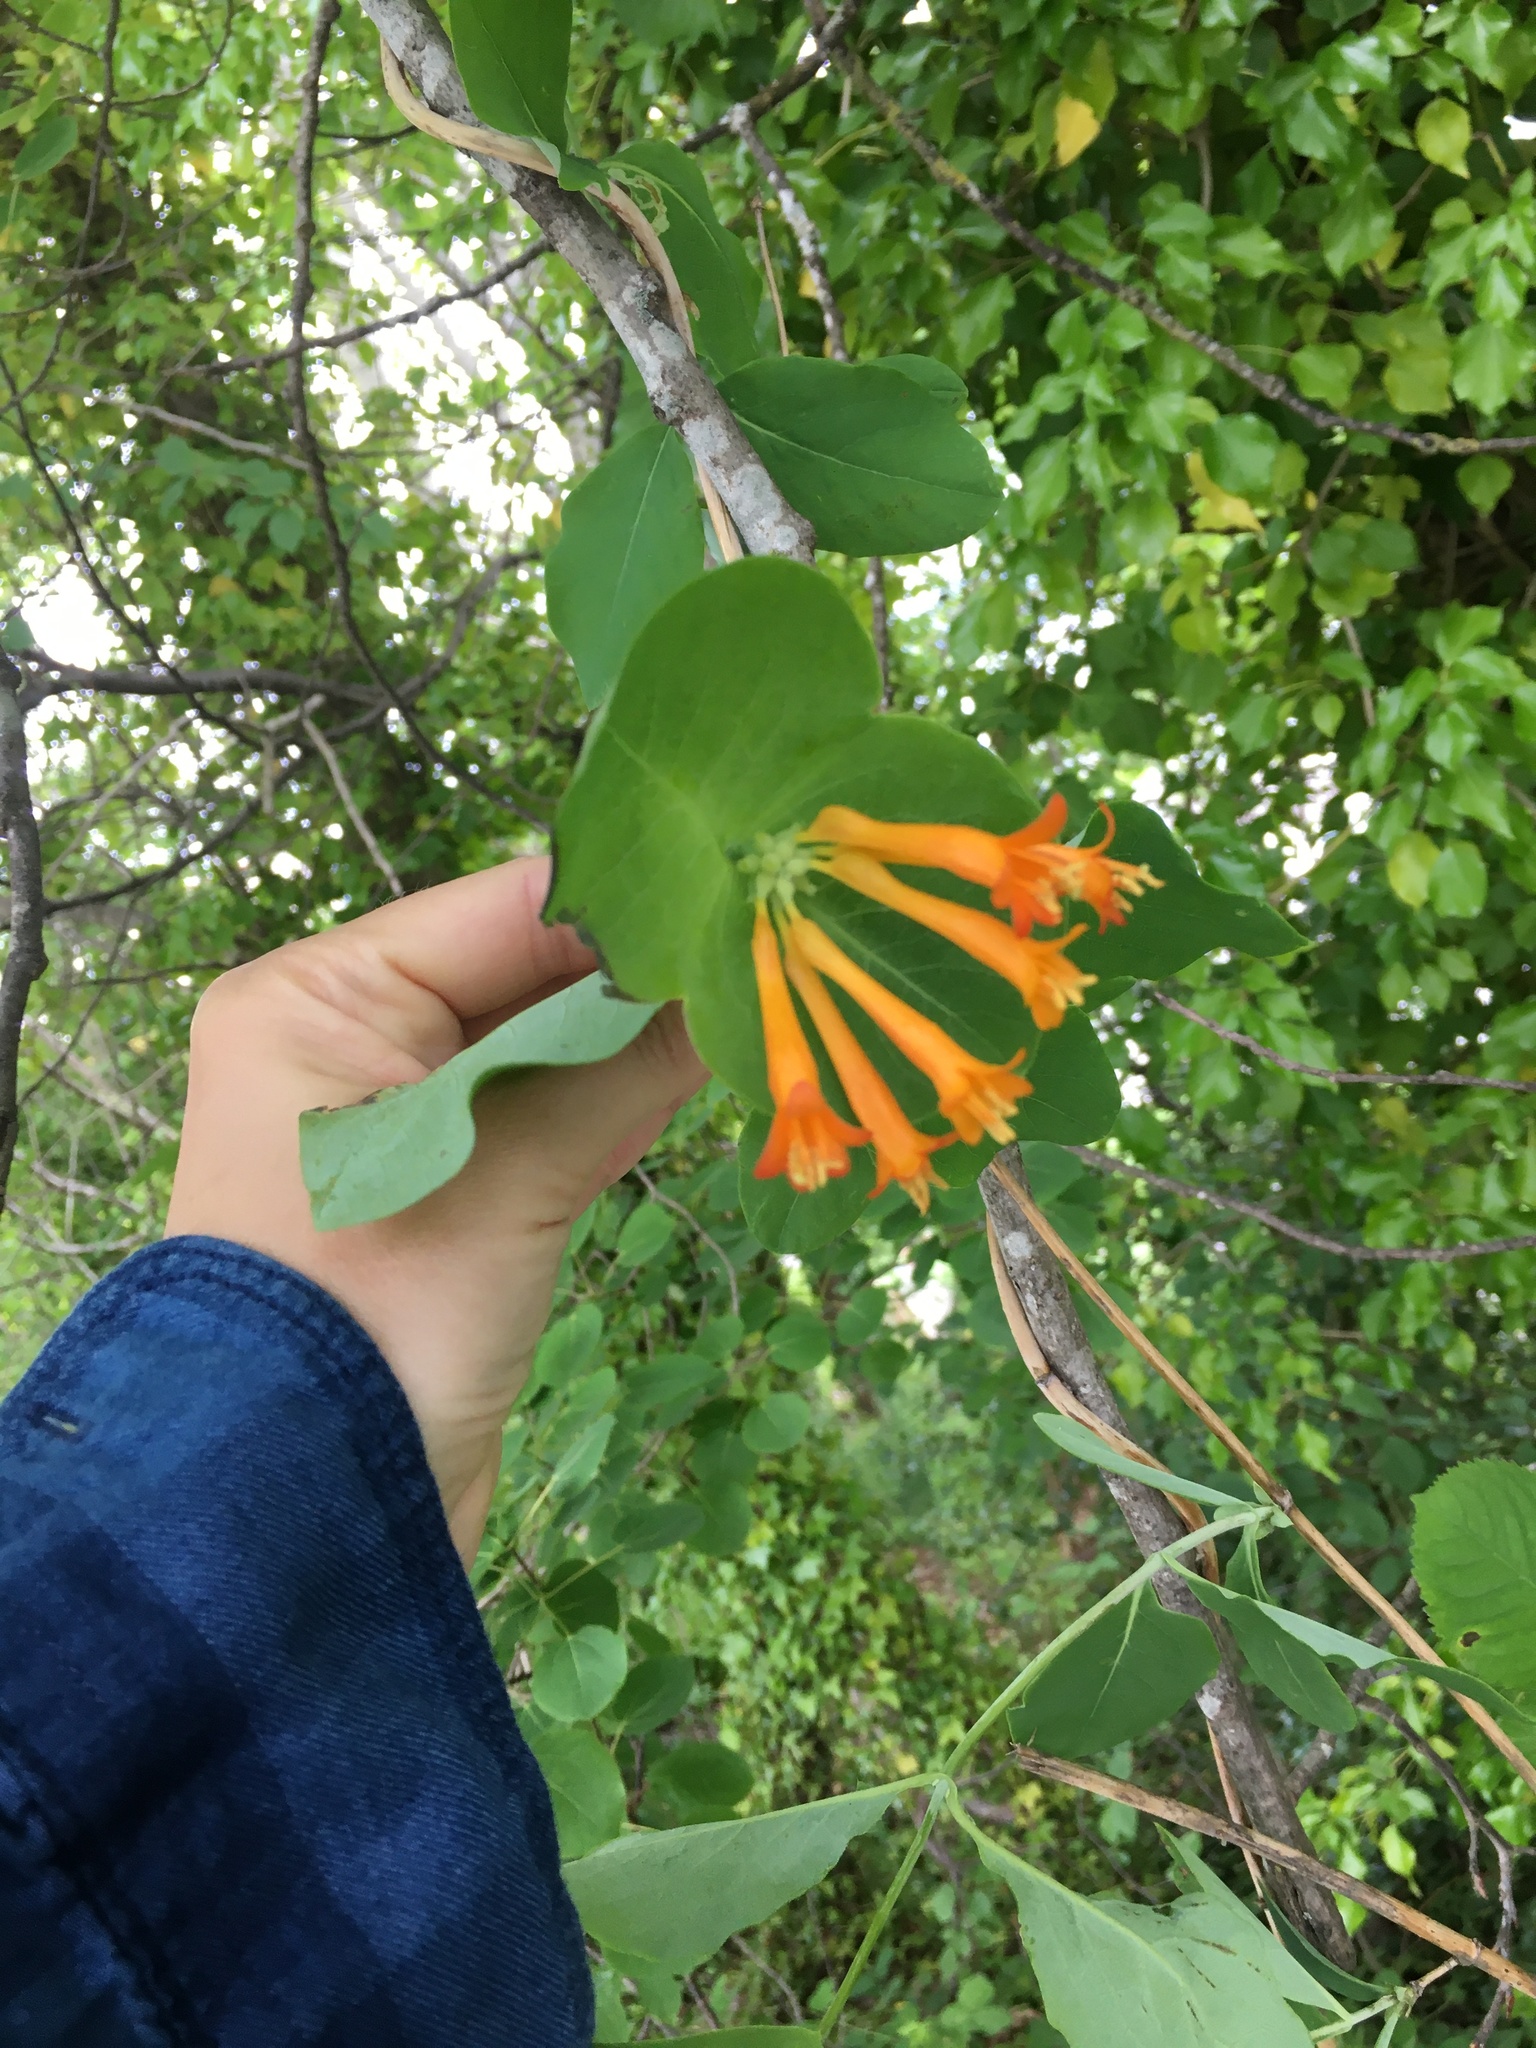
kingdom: Plantae
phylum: Tracheophyta
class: Magnoliopsida
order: Dipsacales
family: Caprifoliaceae
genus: Lonicera
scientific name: Lonicera ciliosa
